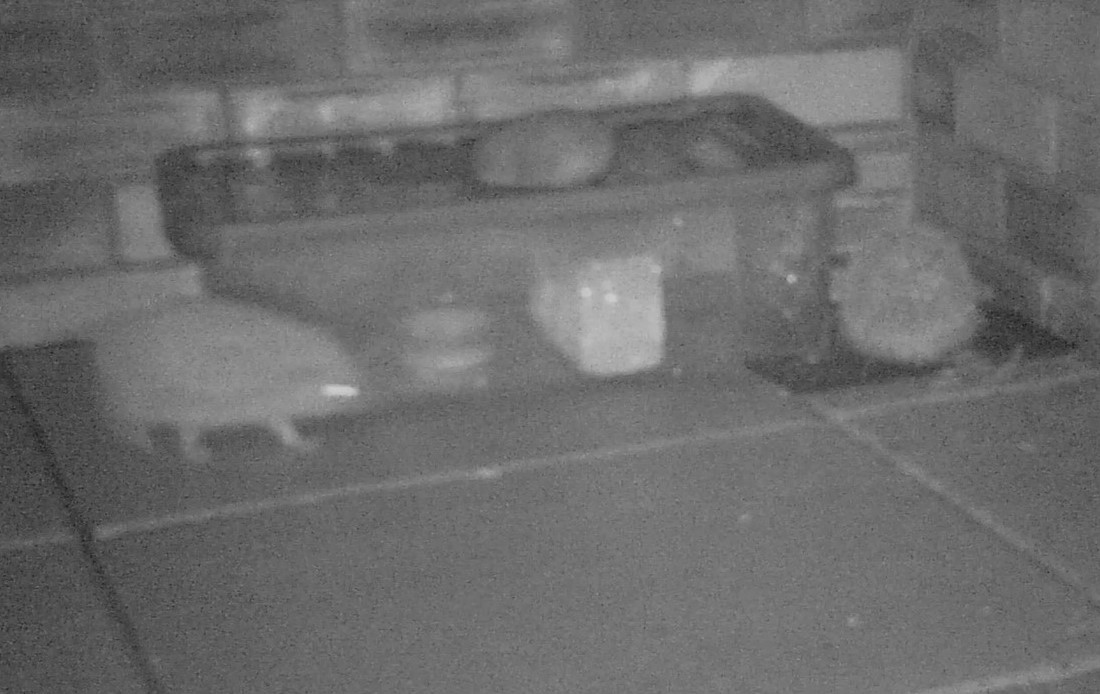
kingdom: Animalia
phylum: Chordata
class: Mammalia
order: Erinaceomorpha
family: Erinaceidae
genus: Erinaceus
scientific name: Erinaceus europaeus
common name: West european hedgehog
